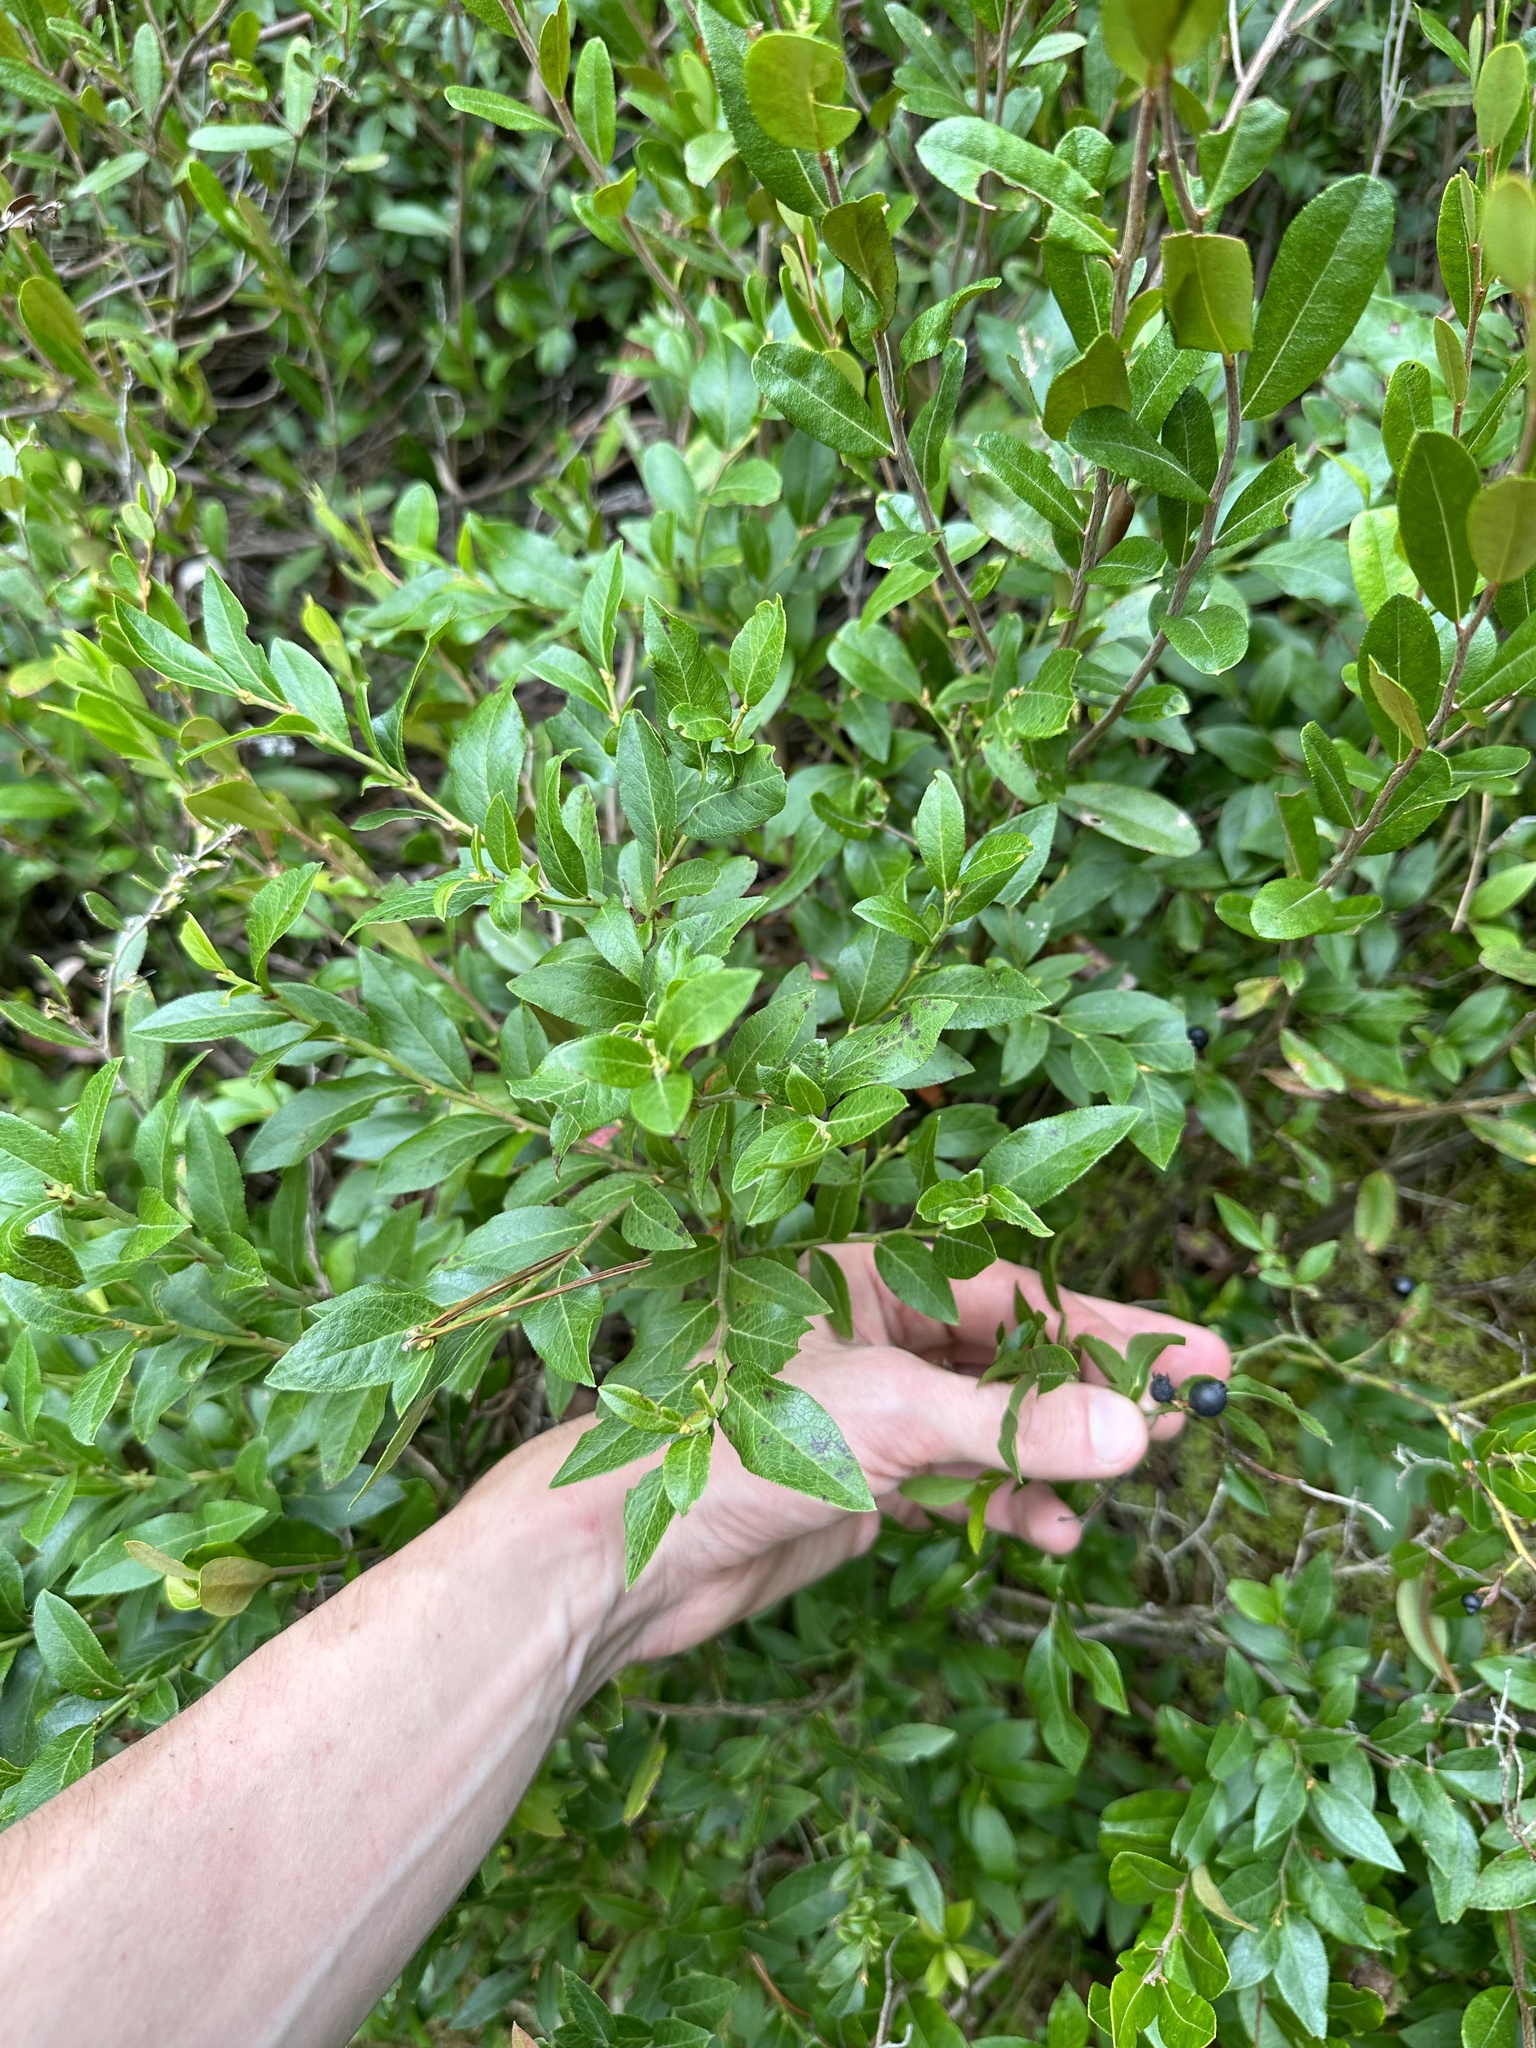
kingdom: Plantae
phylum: Tracheophyta
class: Magnoliopsida
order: Rosales
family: Rosaceae
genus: Aronia
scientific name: Aronia melanocarpa
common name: Black chokeberry
